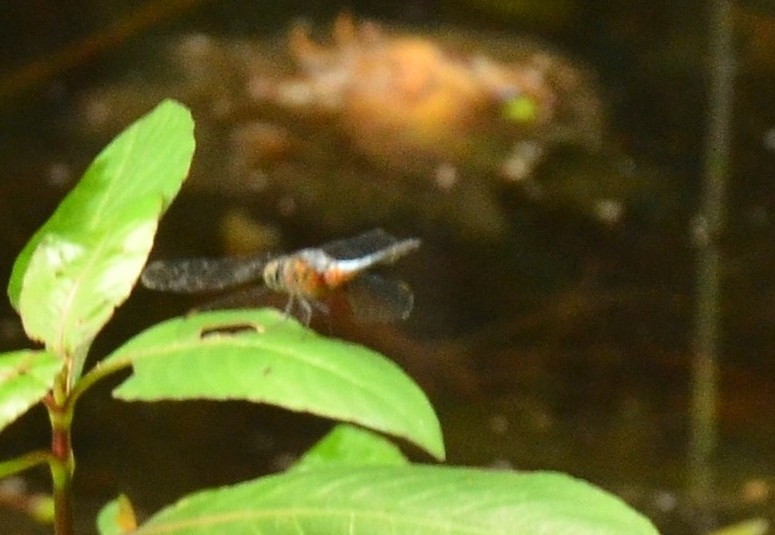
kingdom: Animalia
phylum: Arthropoda
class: Insecta
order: Odonata
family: Libellulidae
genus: Brachydiplax
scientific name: Brachydiplax chalybea
